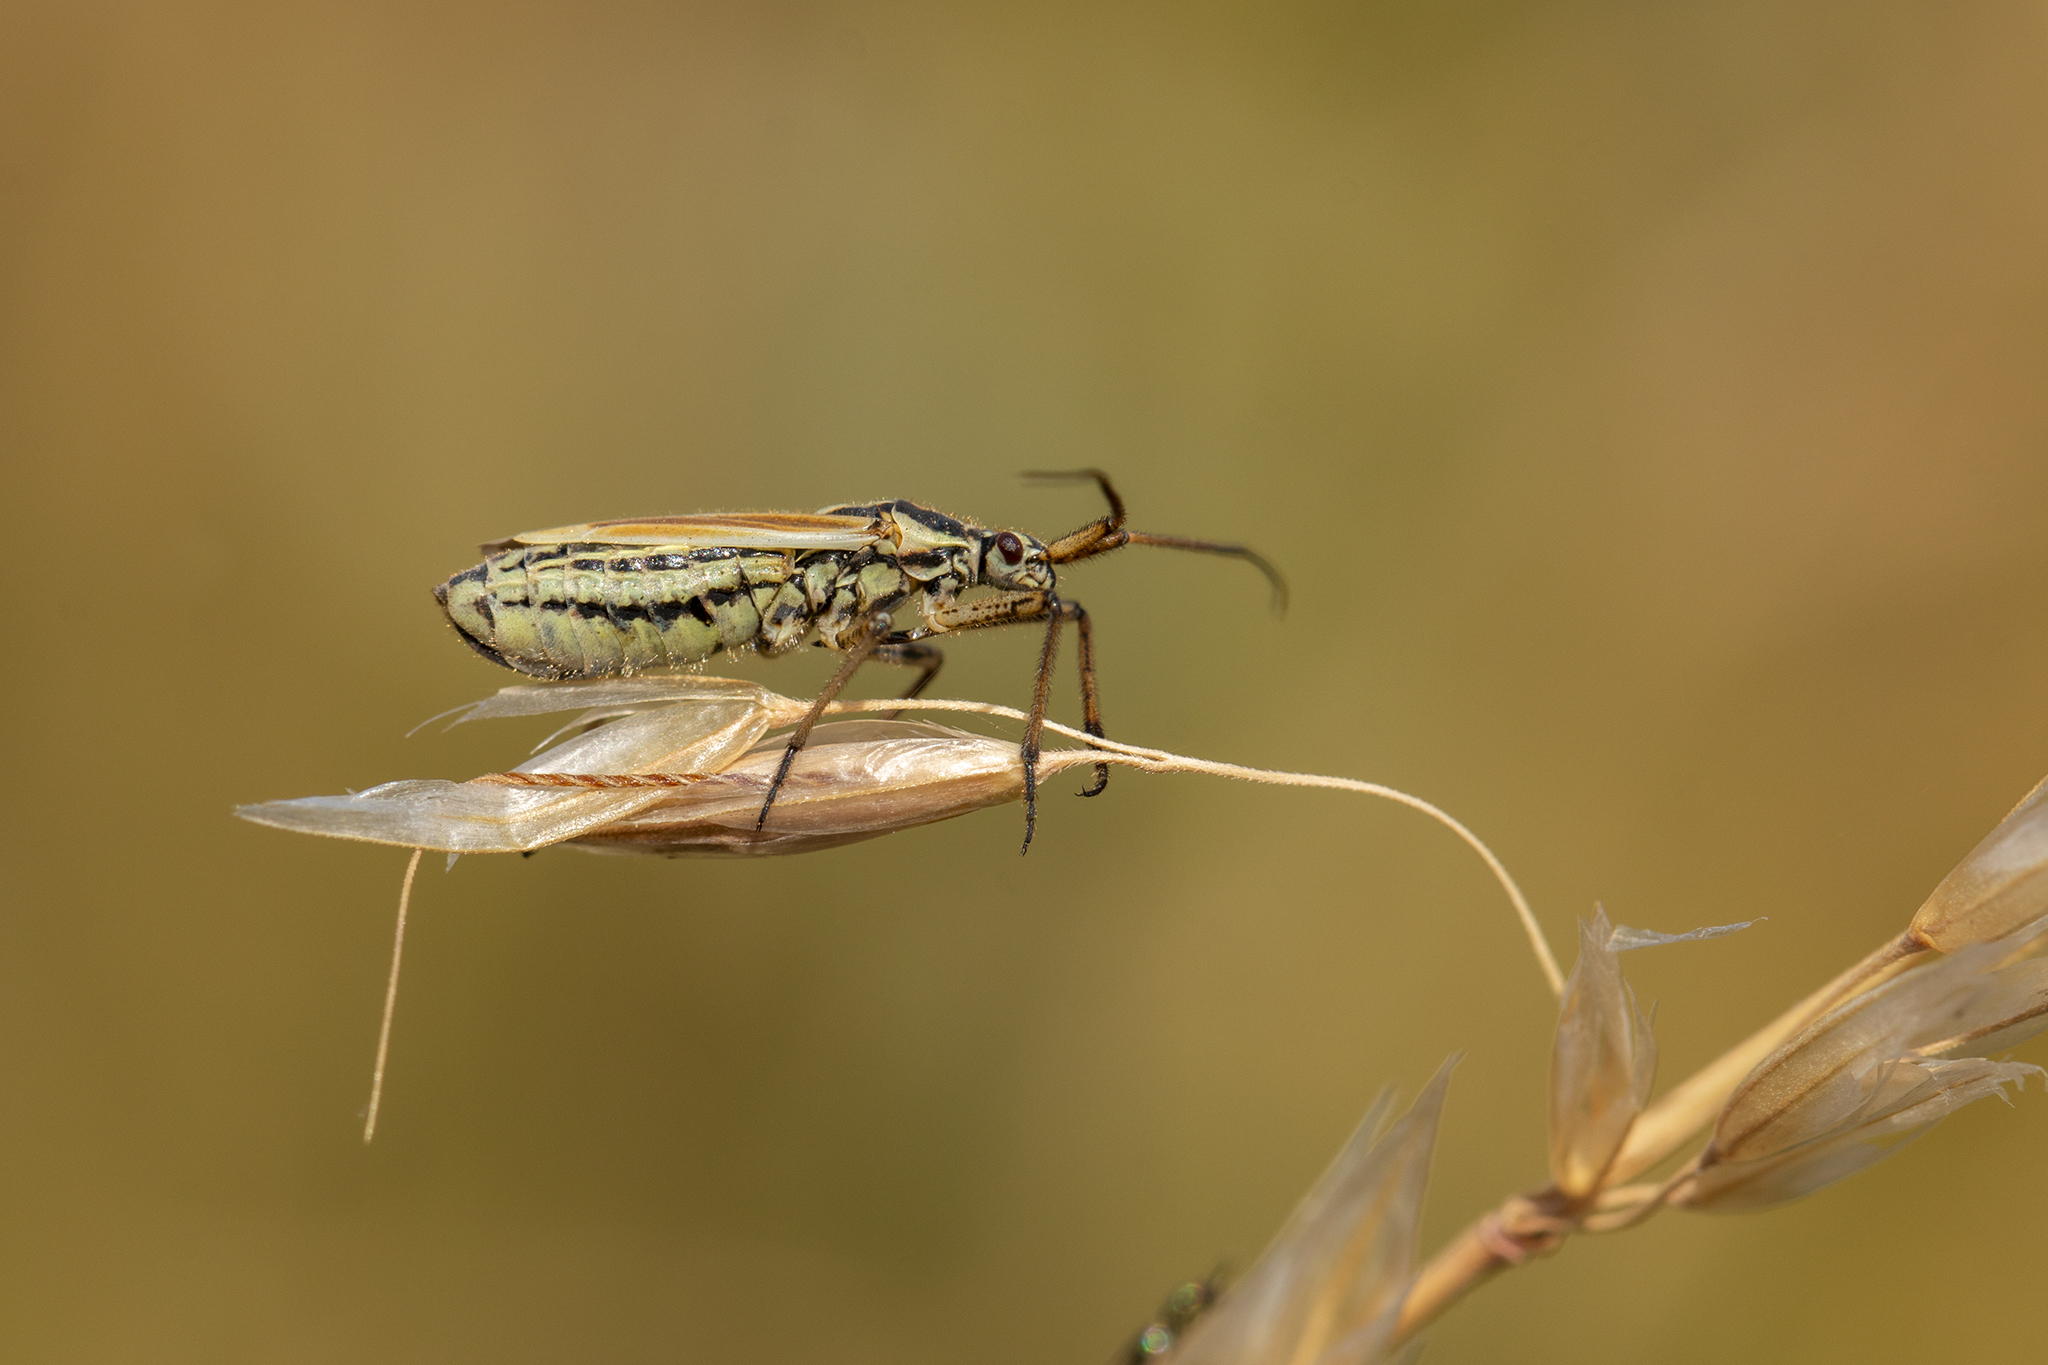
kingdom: Animalia
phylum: Arthropoda
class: Insecta
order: Hemiptera
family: Miridae
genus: Leptopterna
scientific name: Leptopterna dolabrata
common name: Meadow plant bug
